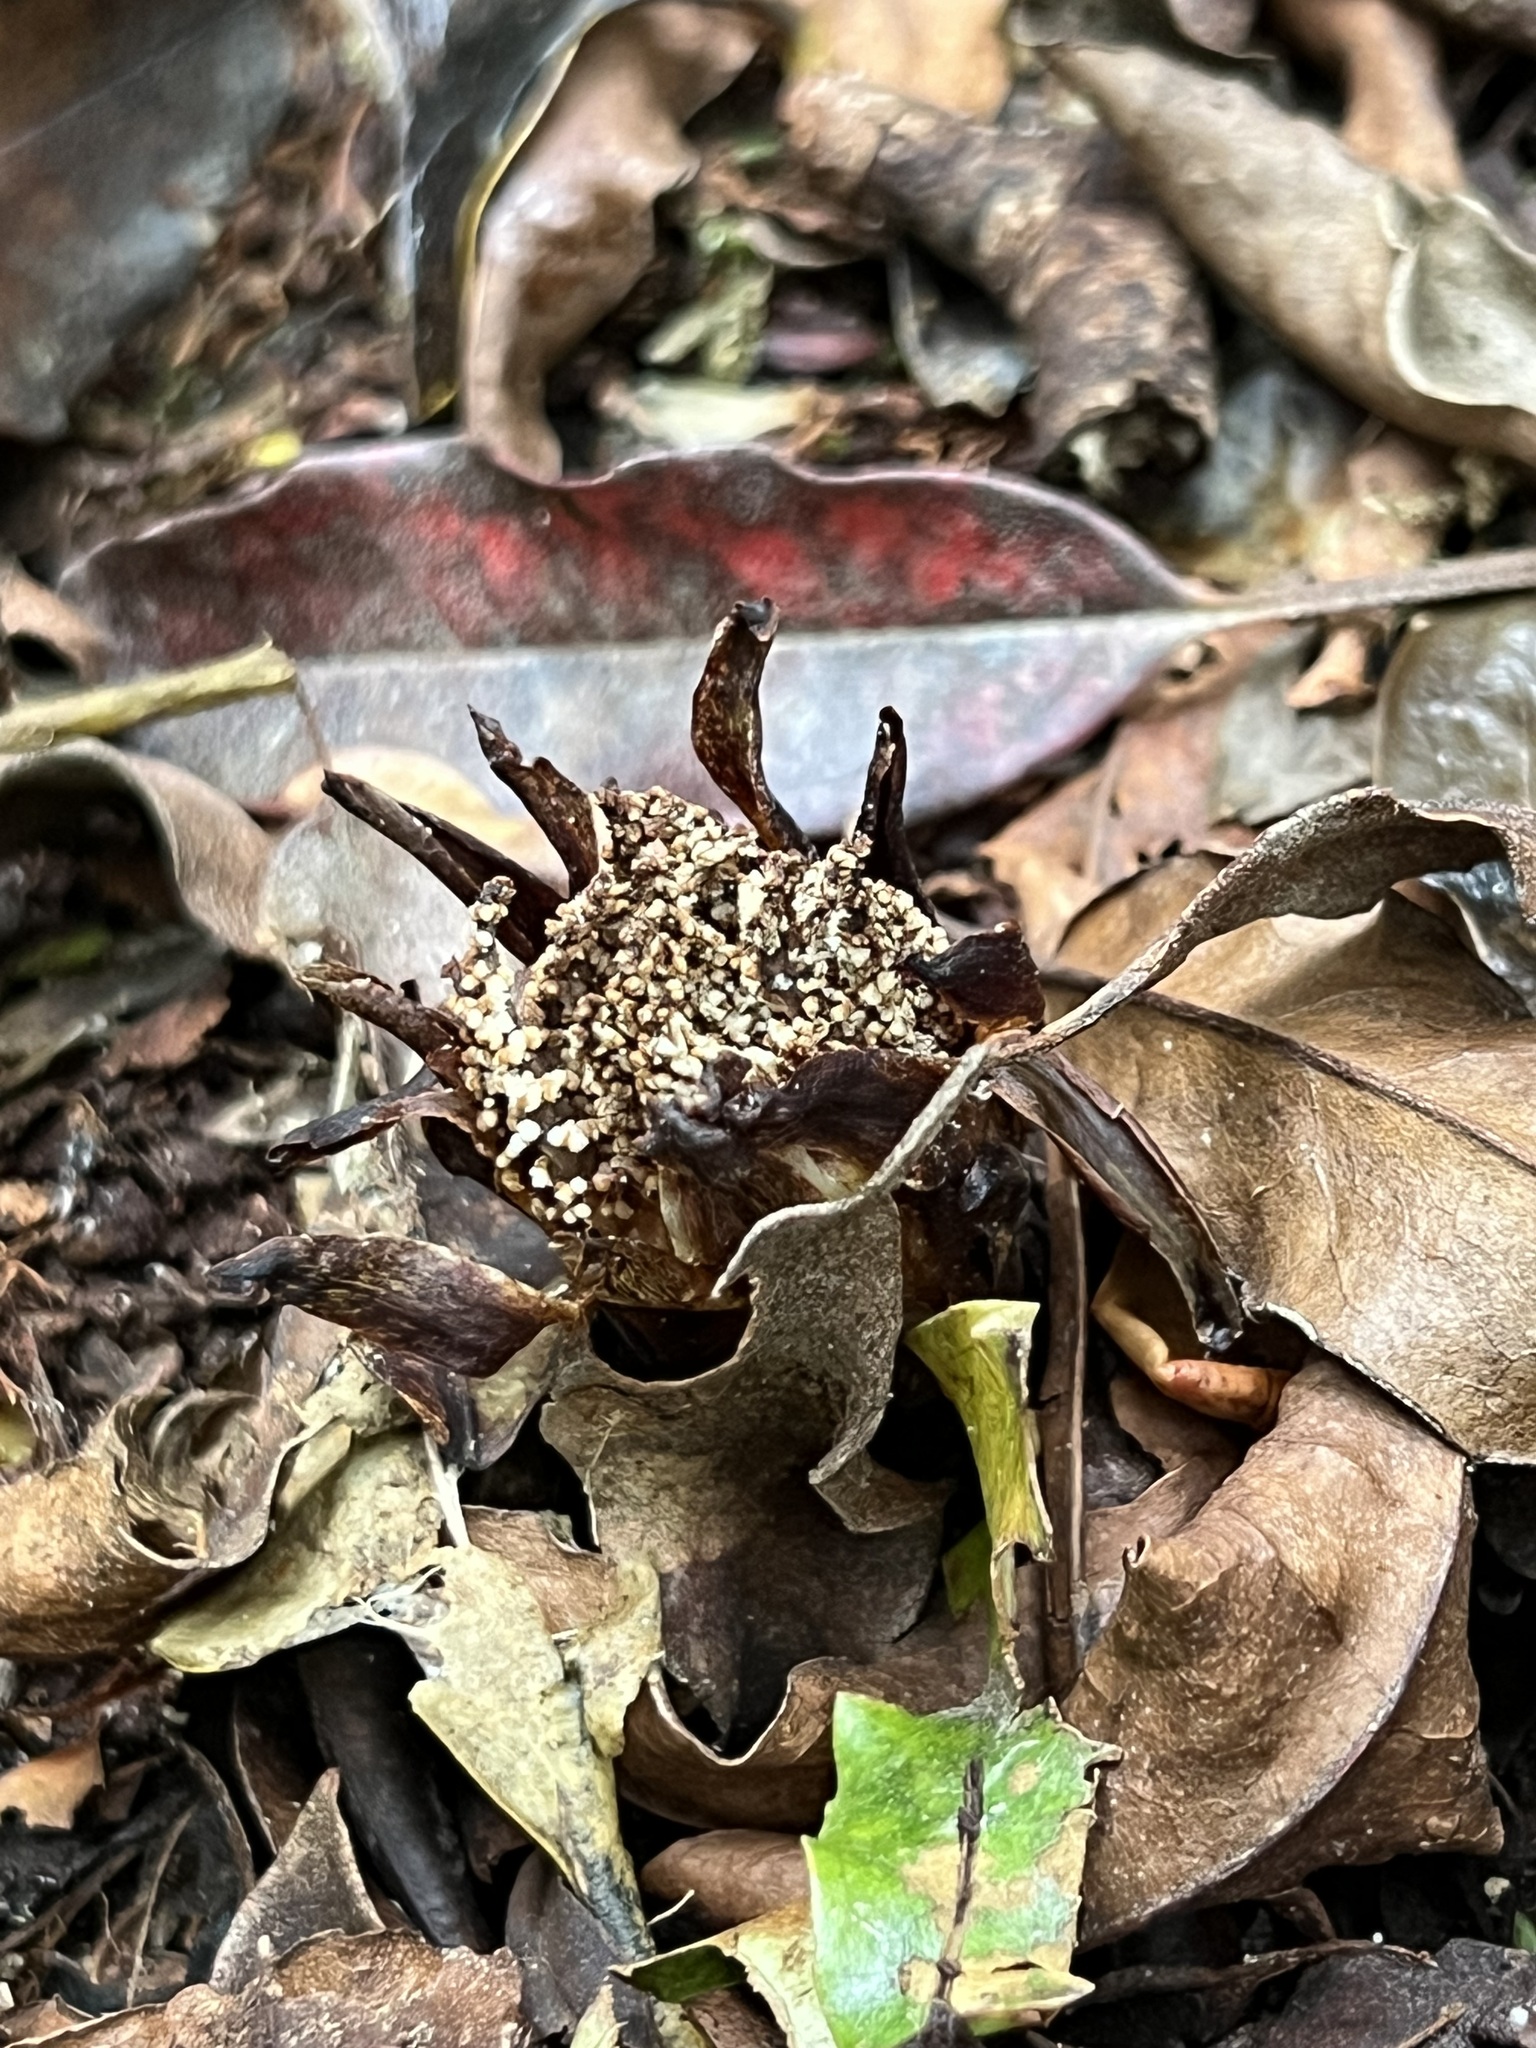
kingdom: Plantae
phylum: Tracheophyta
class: Magnoliopsida
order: Santalales
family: Mystropetalaceae
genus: Dactylanthus
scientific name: Dactylanthus taylorii
